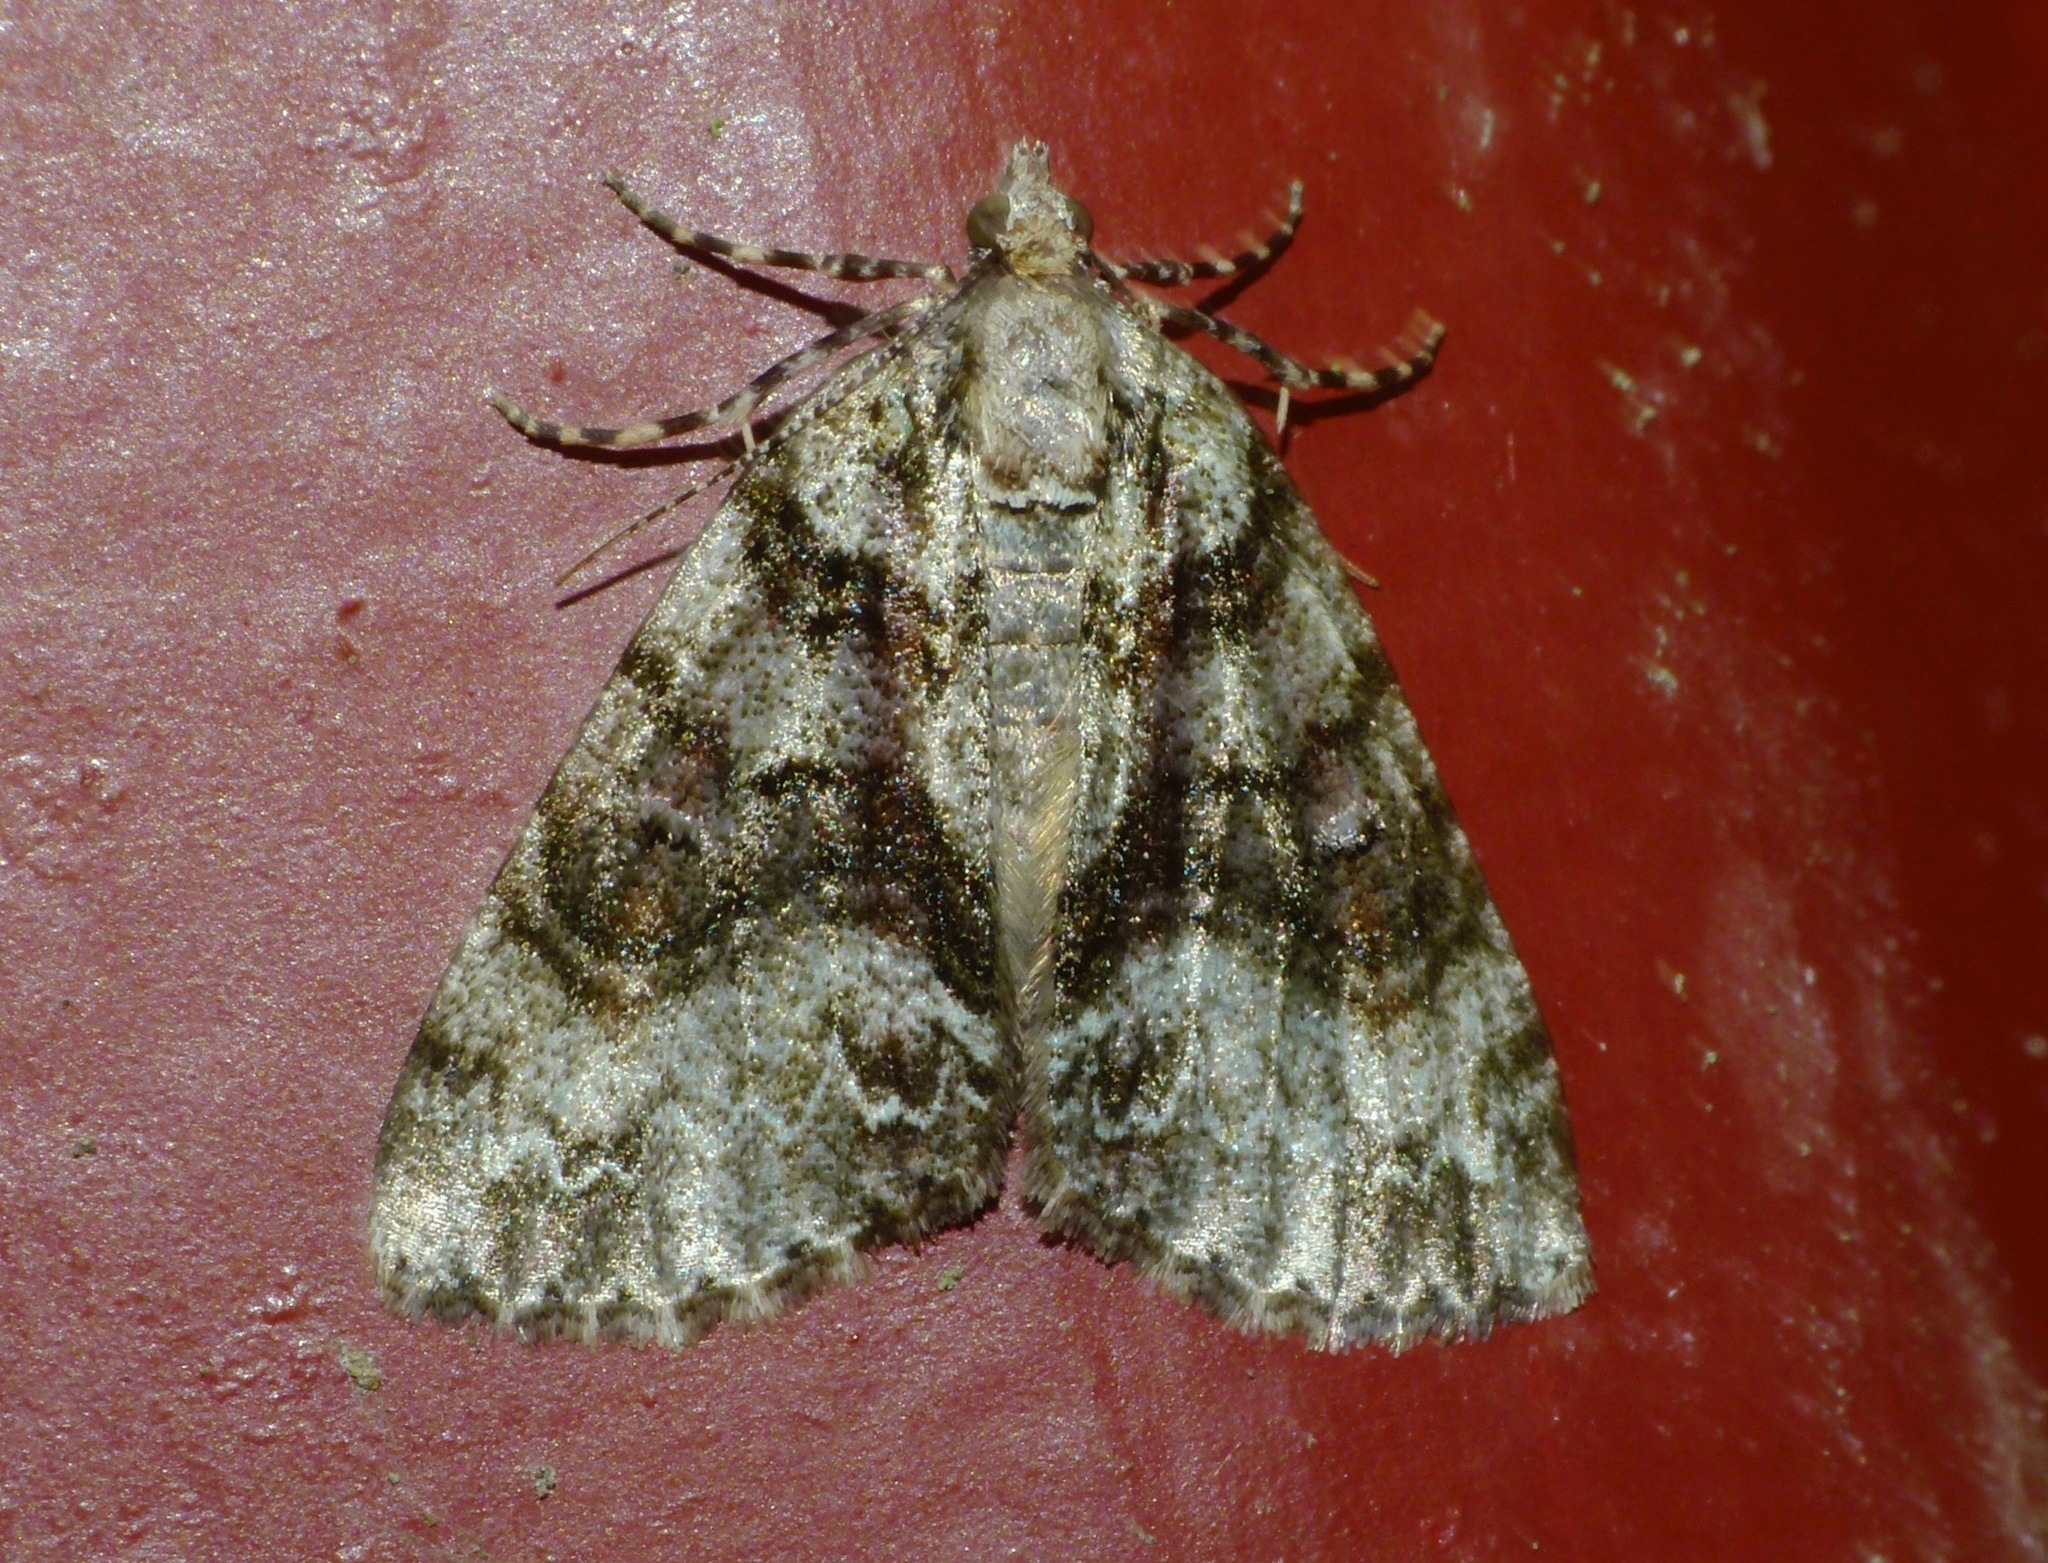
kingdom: Animalia
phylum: Arthropoda
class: Insecta
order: Lepidoptera
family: Geometridae
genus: Pseudocoremia
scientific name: Pseudocoremia suavis
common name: Common forest looper
